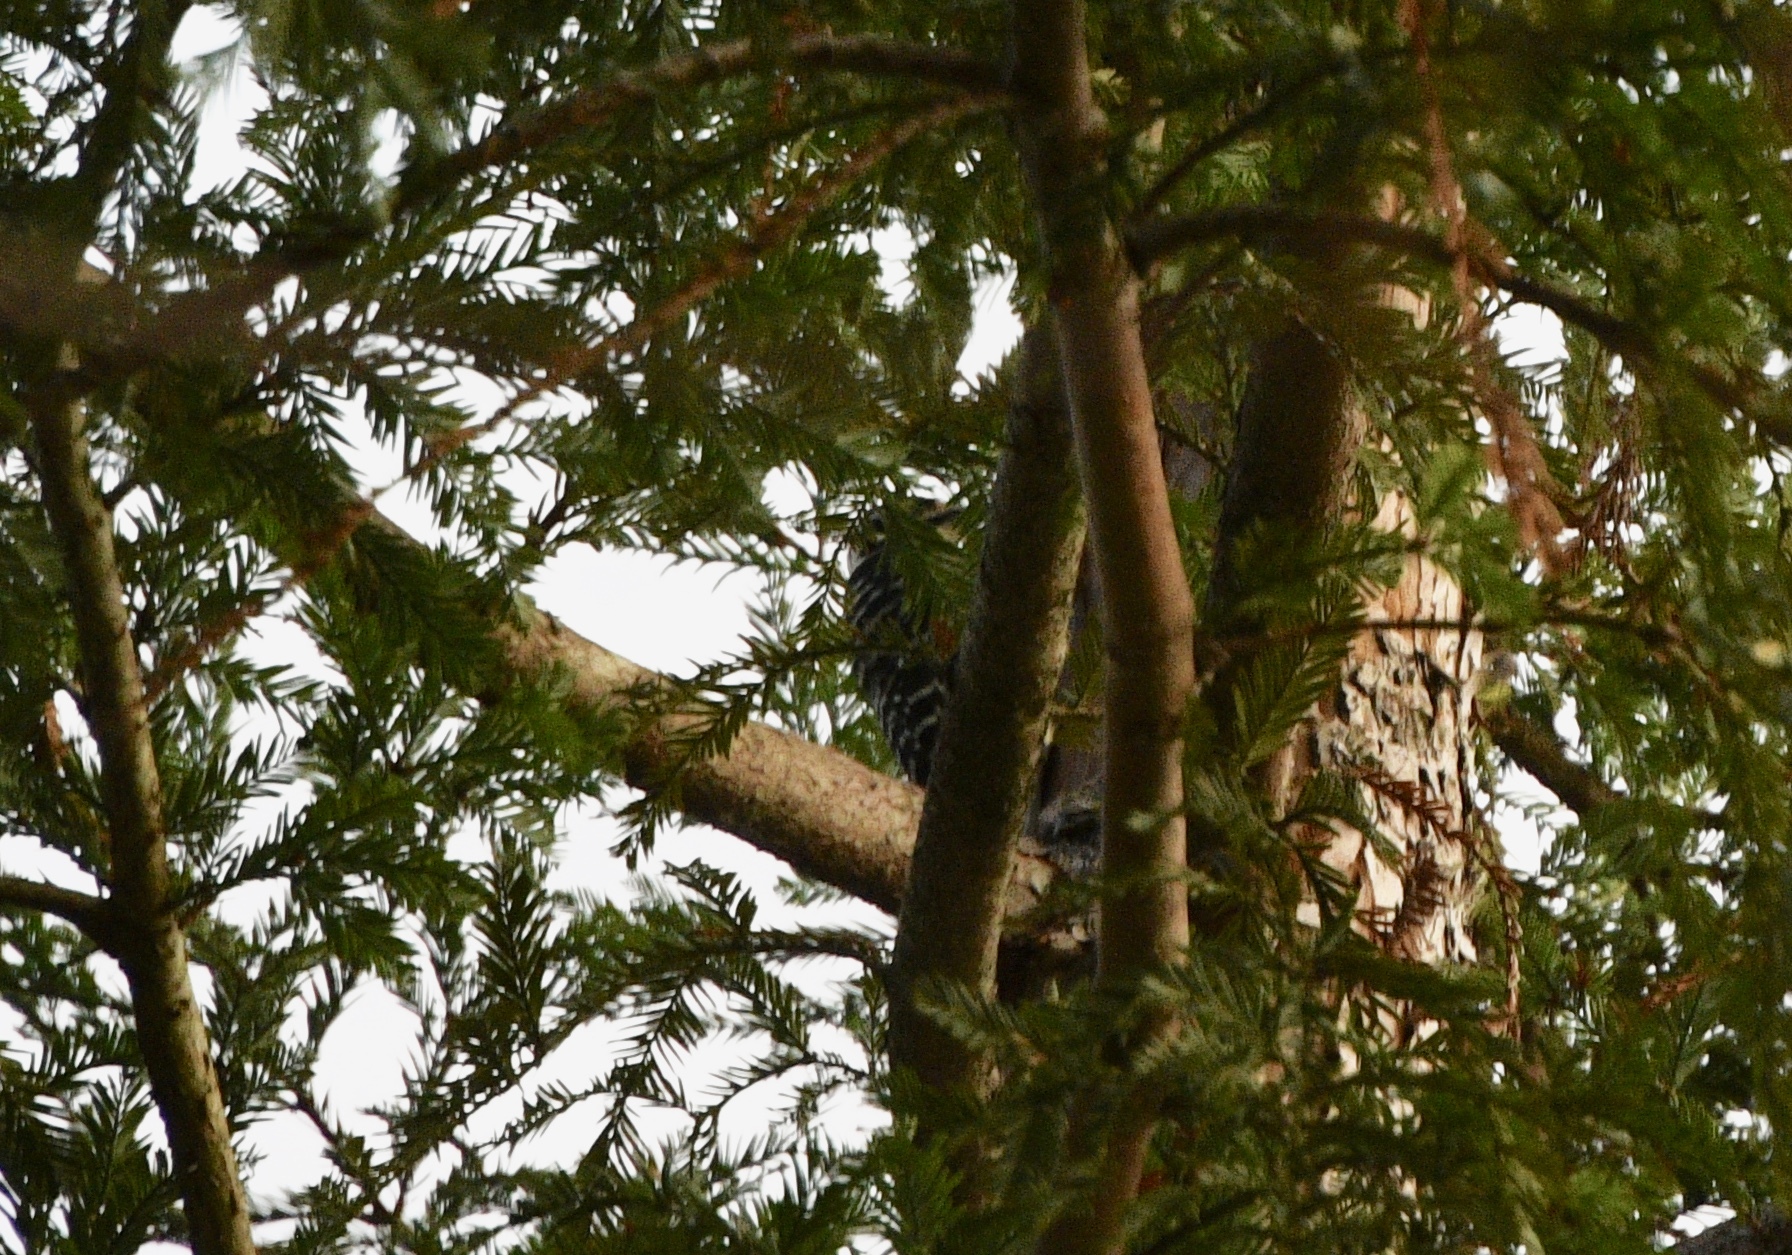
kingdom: Animalia
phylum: Chordata
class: Aves
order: Piciformes
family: Picidae
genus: Dryobates
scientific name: Dryobates nuttallii
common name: Nuttall's woodpecker
